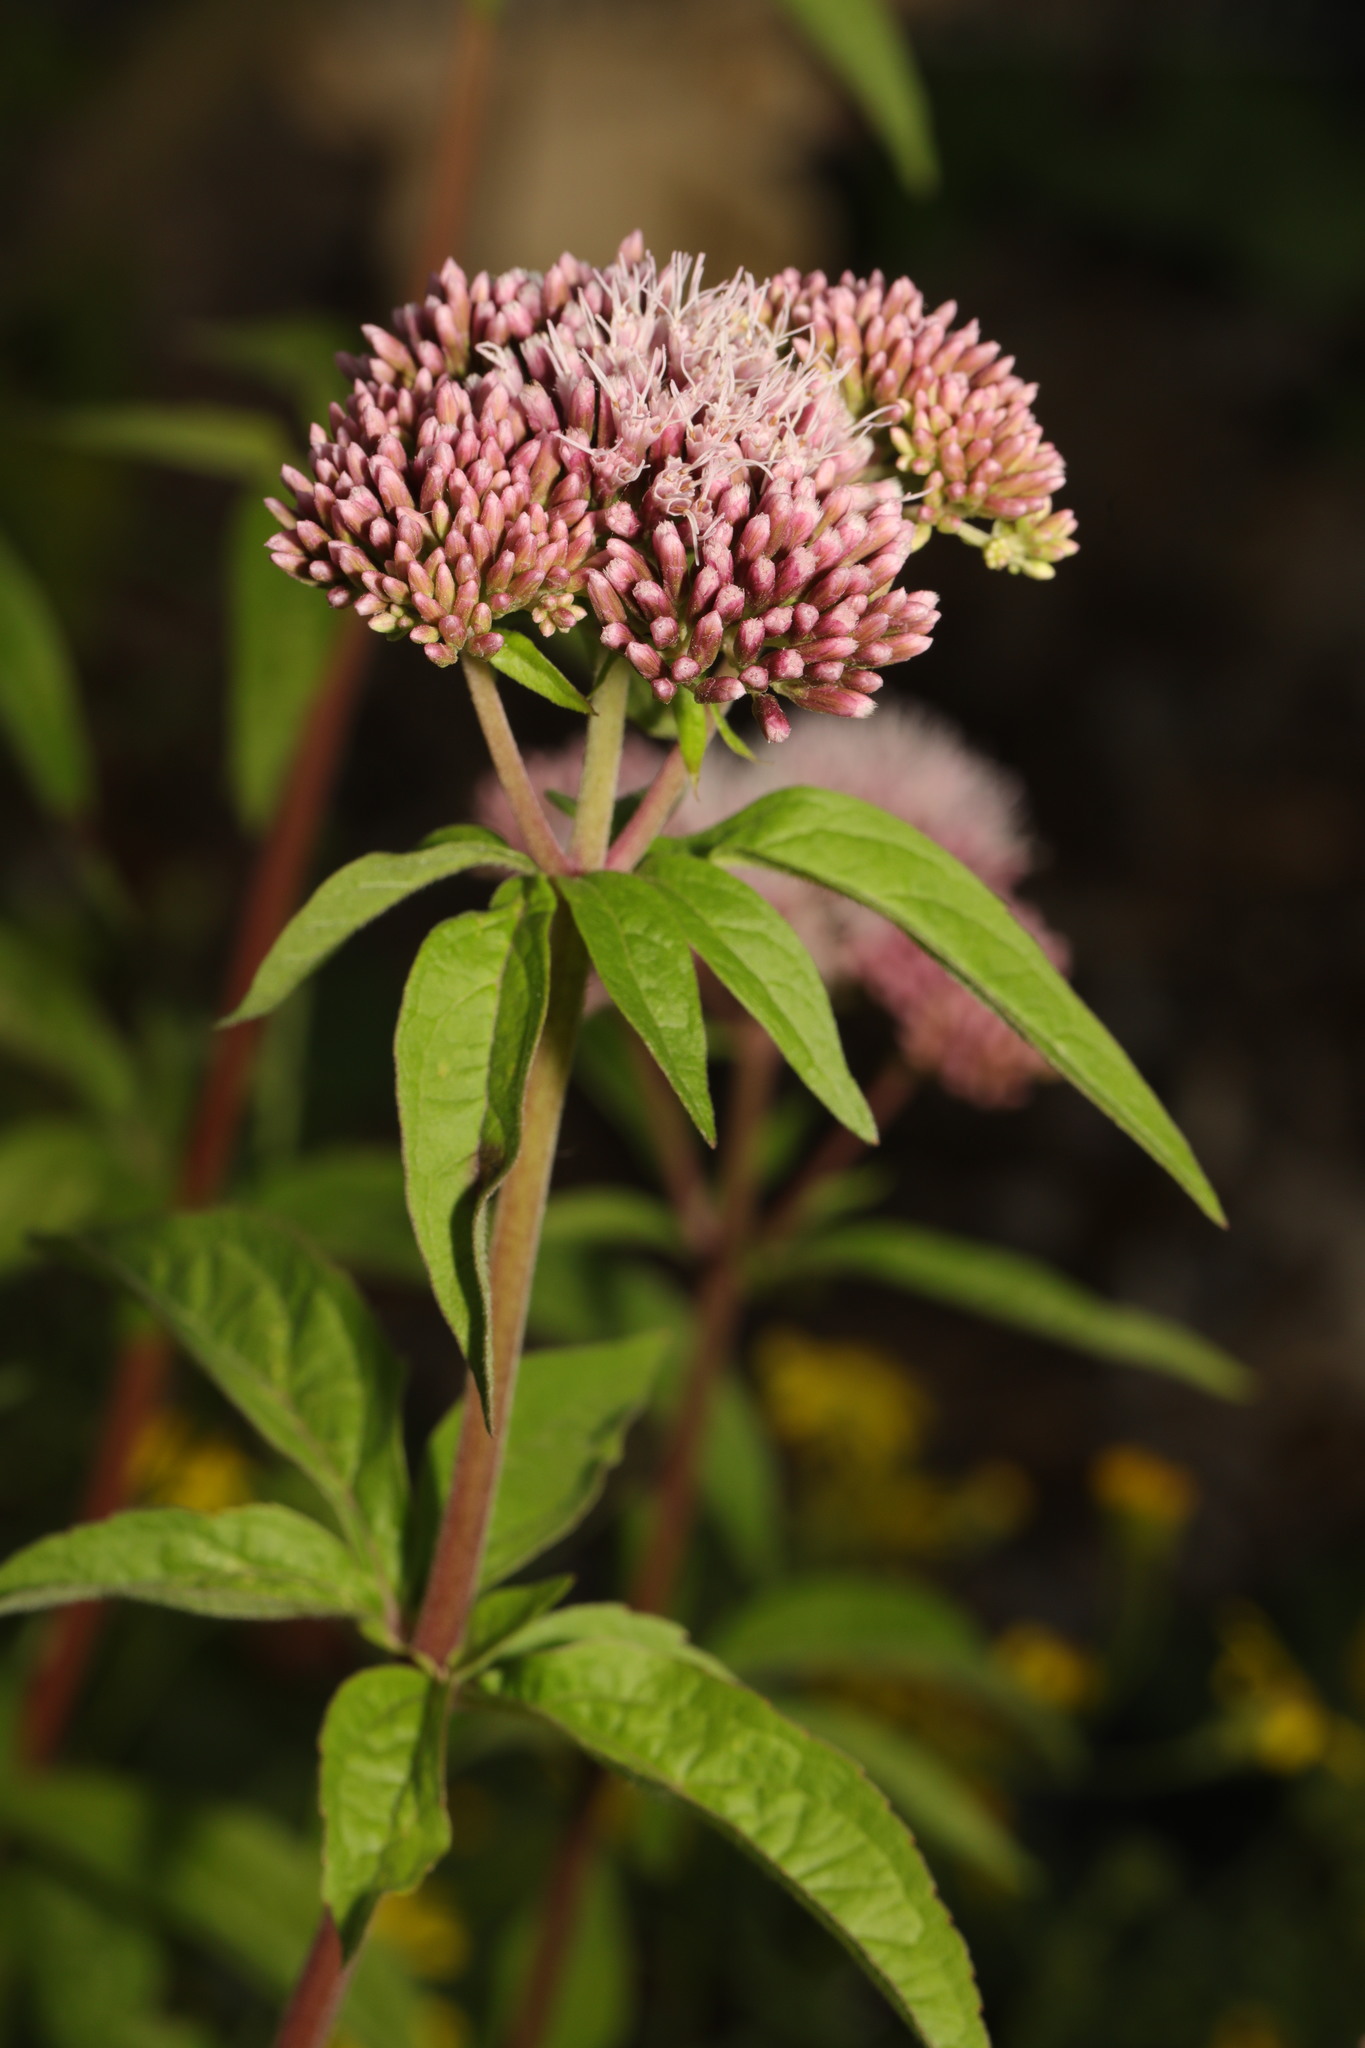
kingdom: Plantae
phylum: Tracheophyta
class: Magnoliopsida
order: Asterales
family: Asteraceae
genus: Eupatorium
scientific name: Eupatorium cannabinum
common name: Hemp-agrimony
